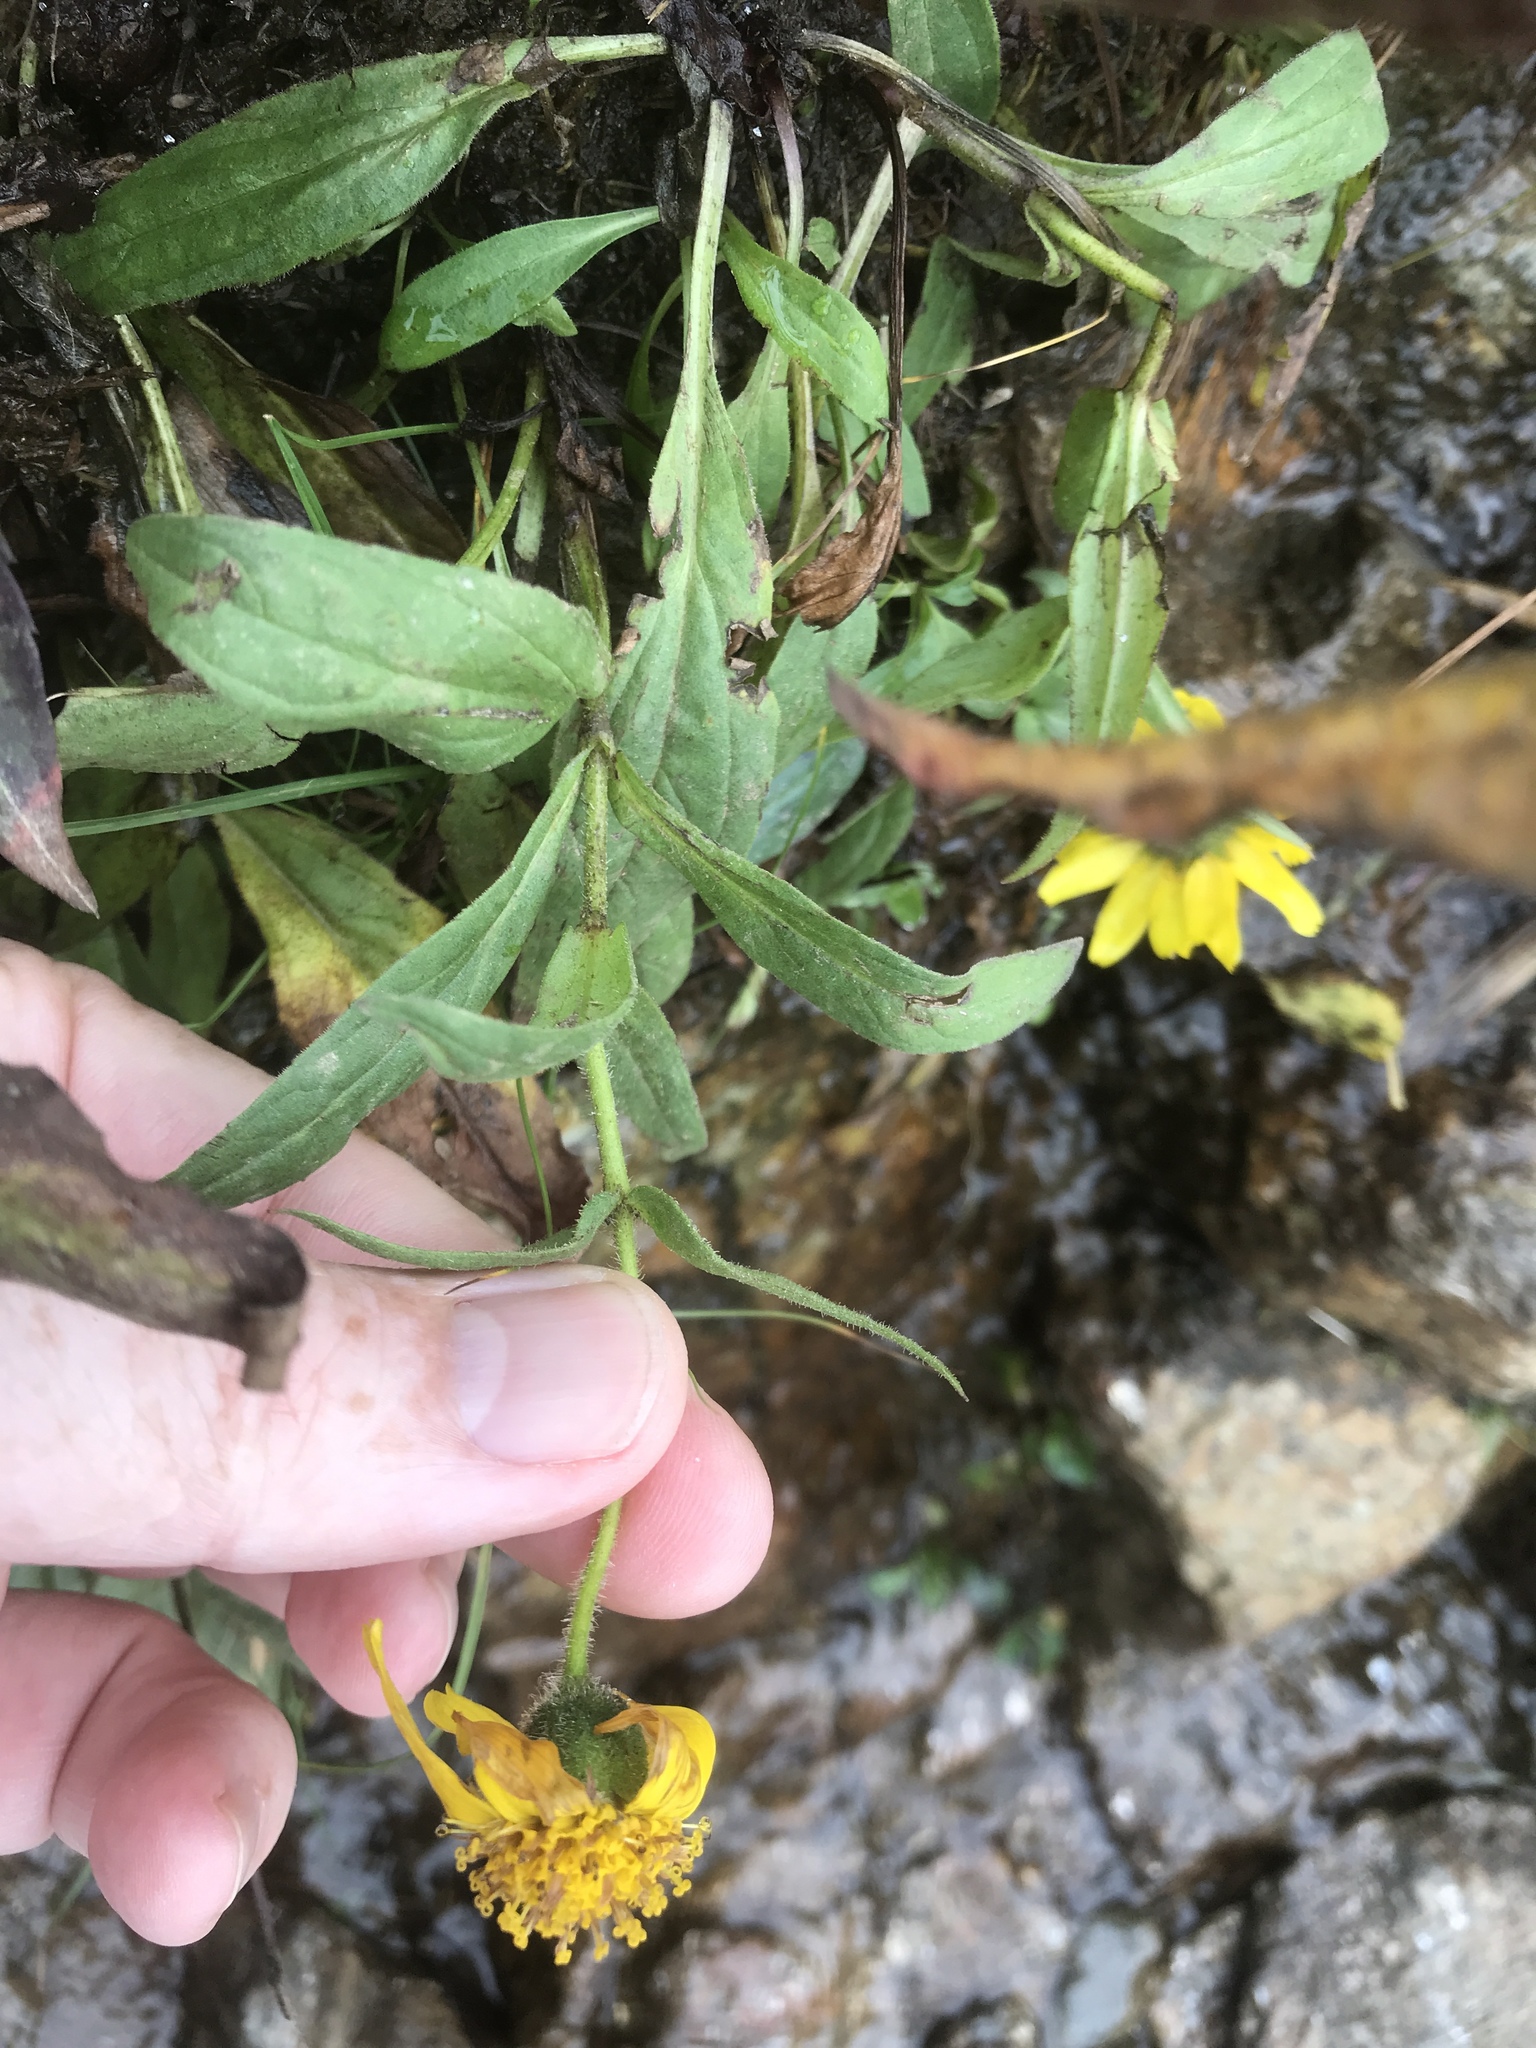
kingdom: Plantae
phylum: Tracheophyta
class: Magnoliopsida
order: Asterales
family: Asteraceae
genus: Arnica
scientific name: Arnica lanceolata
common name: Lance-leaved arnica
